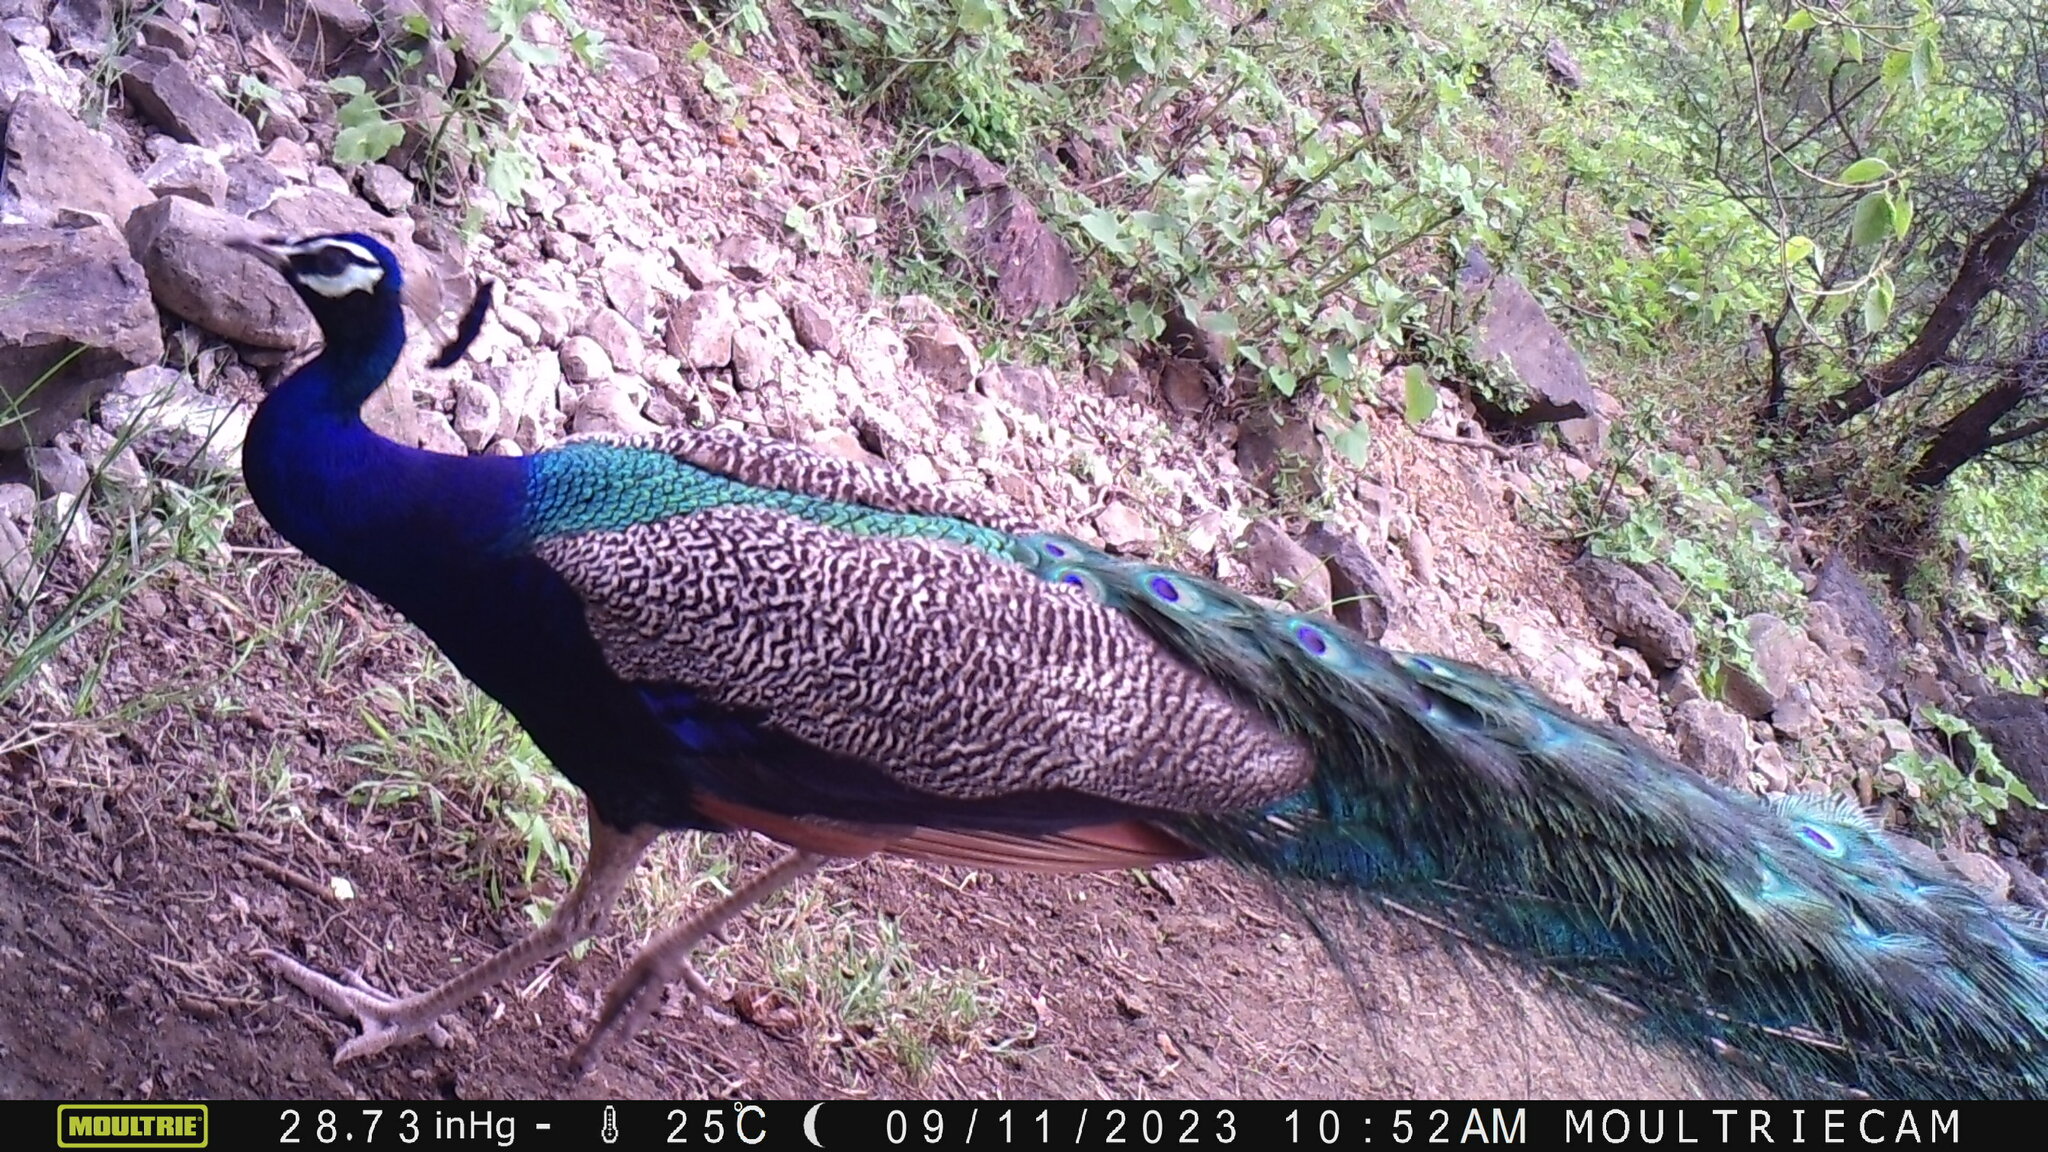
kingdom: Animalia
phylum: Chordata
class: Aves
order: Galliformes
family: Phasianidae
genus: Pavo
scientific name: Pavo cristatus
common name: Indian peafowl
